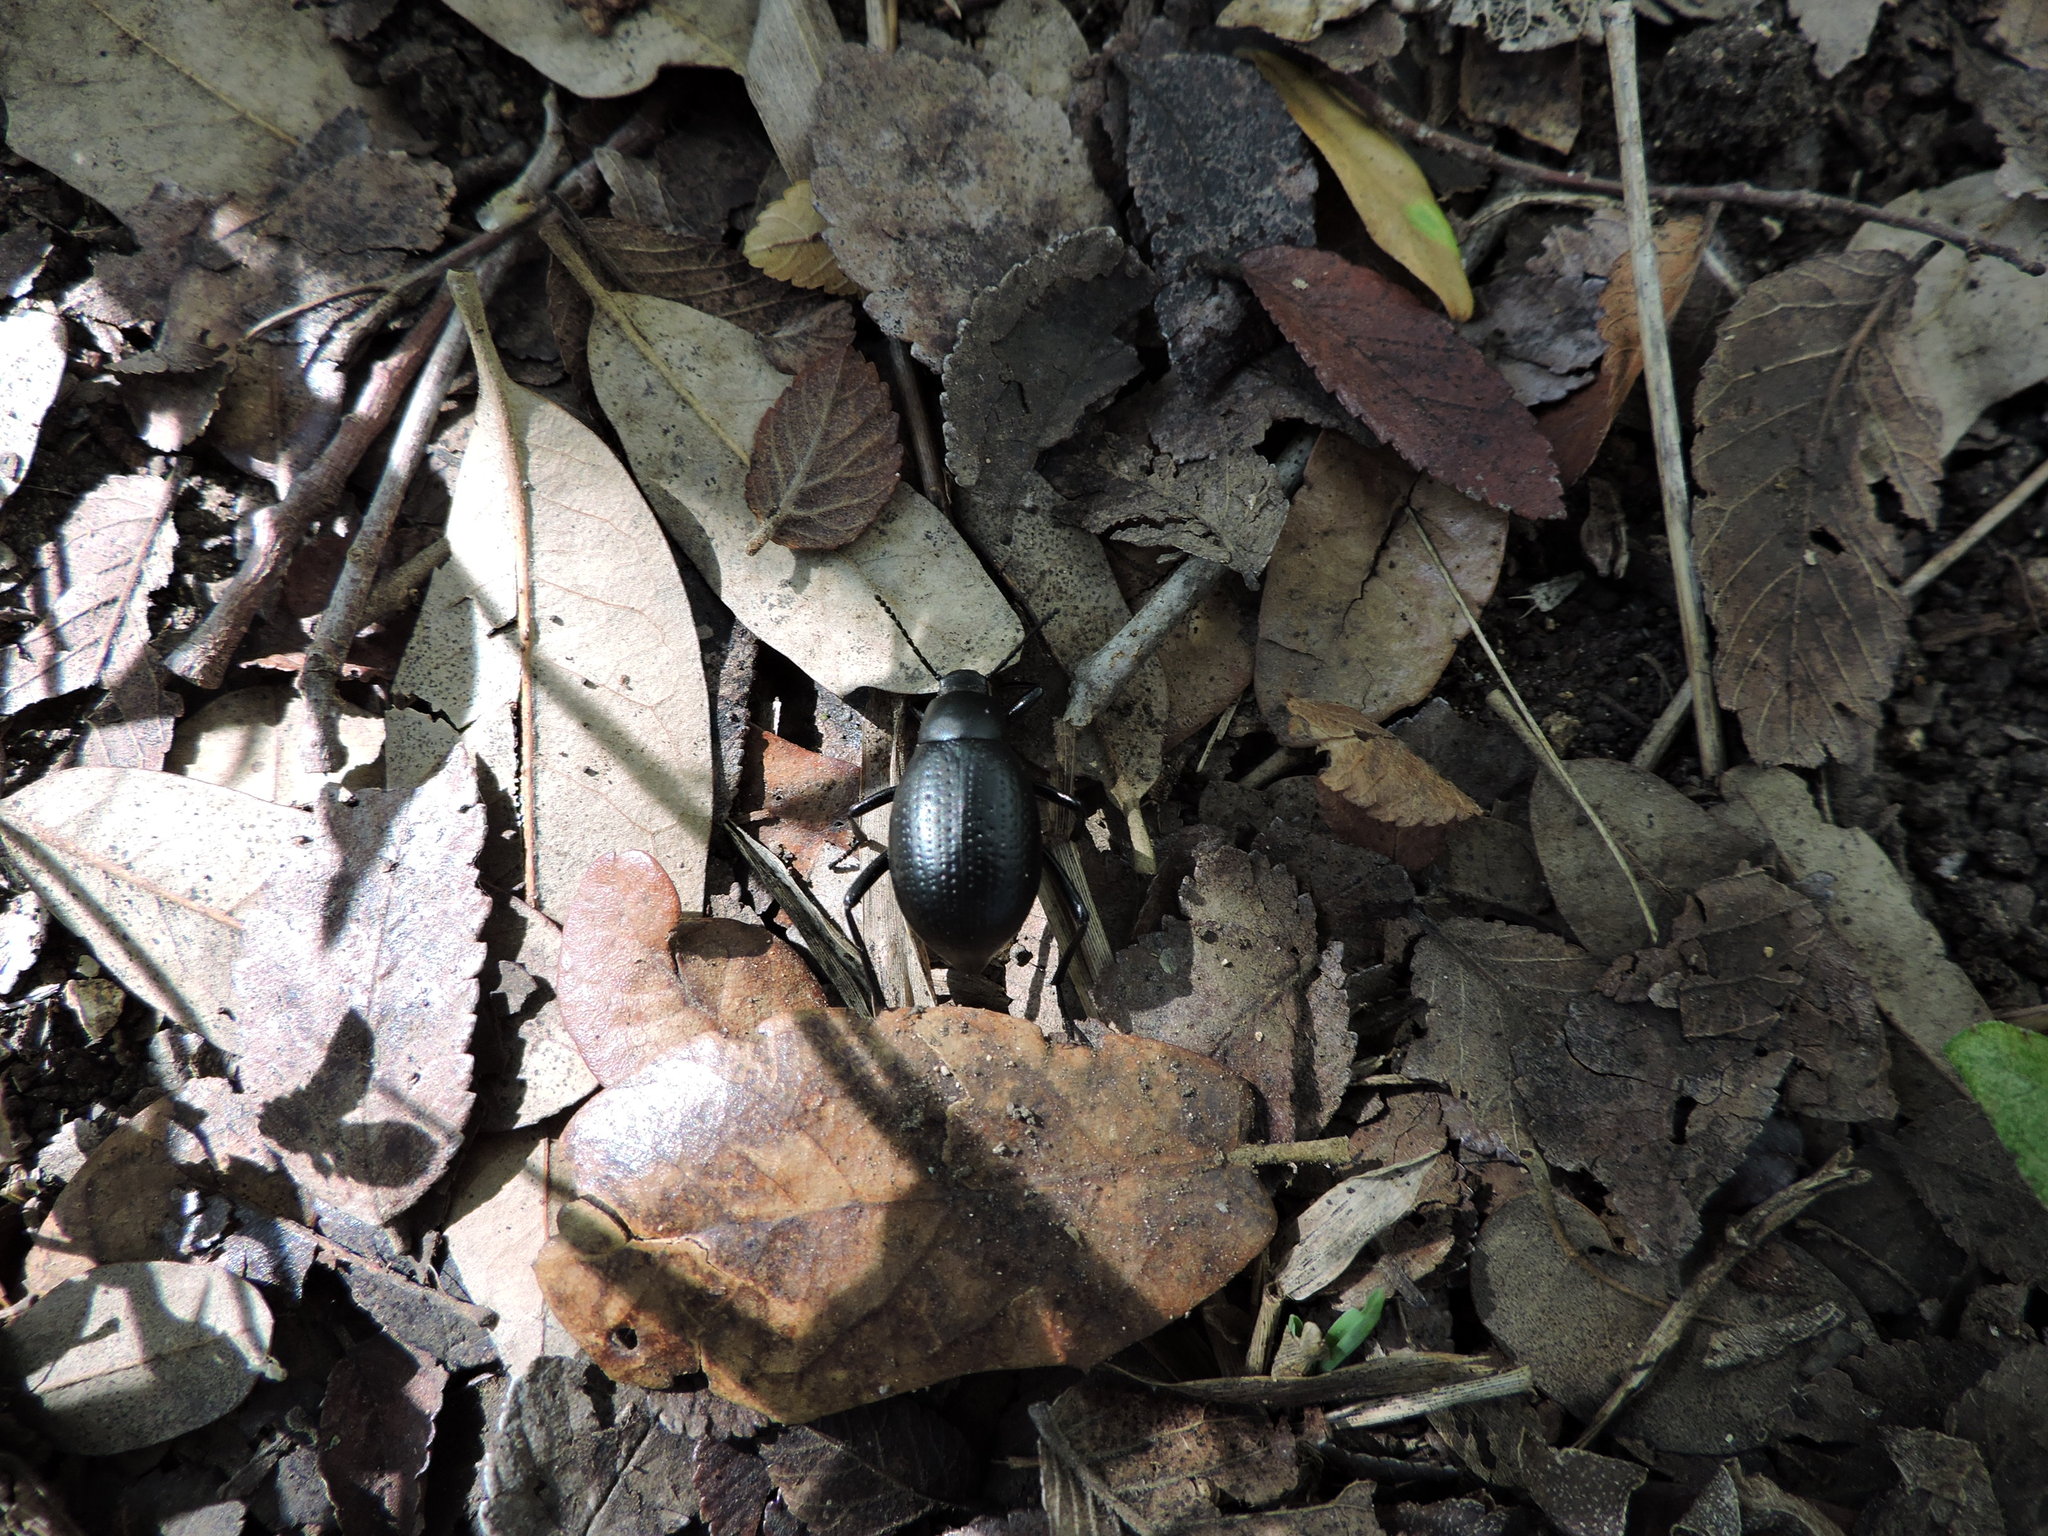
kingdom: Animalia
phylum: Arthropoda
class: Insecta
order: Coleoptera
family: Tenebrionidae
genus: Eleodes
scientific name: Eleodes goryi
